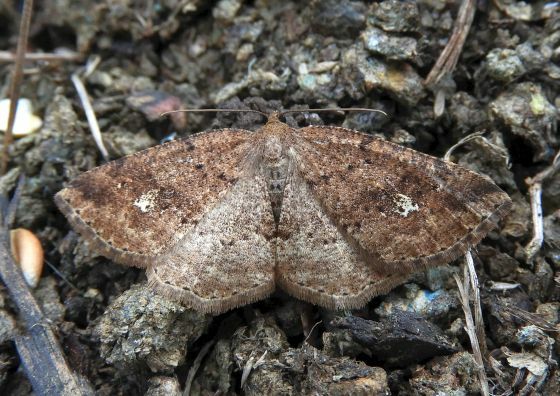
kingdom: Animalia
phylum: Arthropoda
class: Insecta
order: Lepidoptera
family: Geometridae
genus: Homochlodes
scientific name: Homochlodes fritillaria
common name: Pale homochlodes
